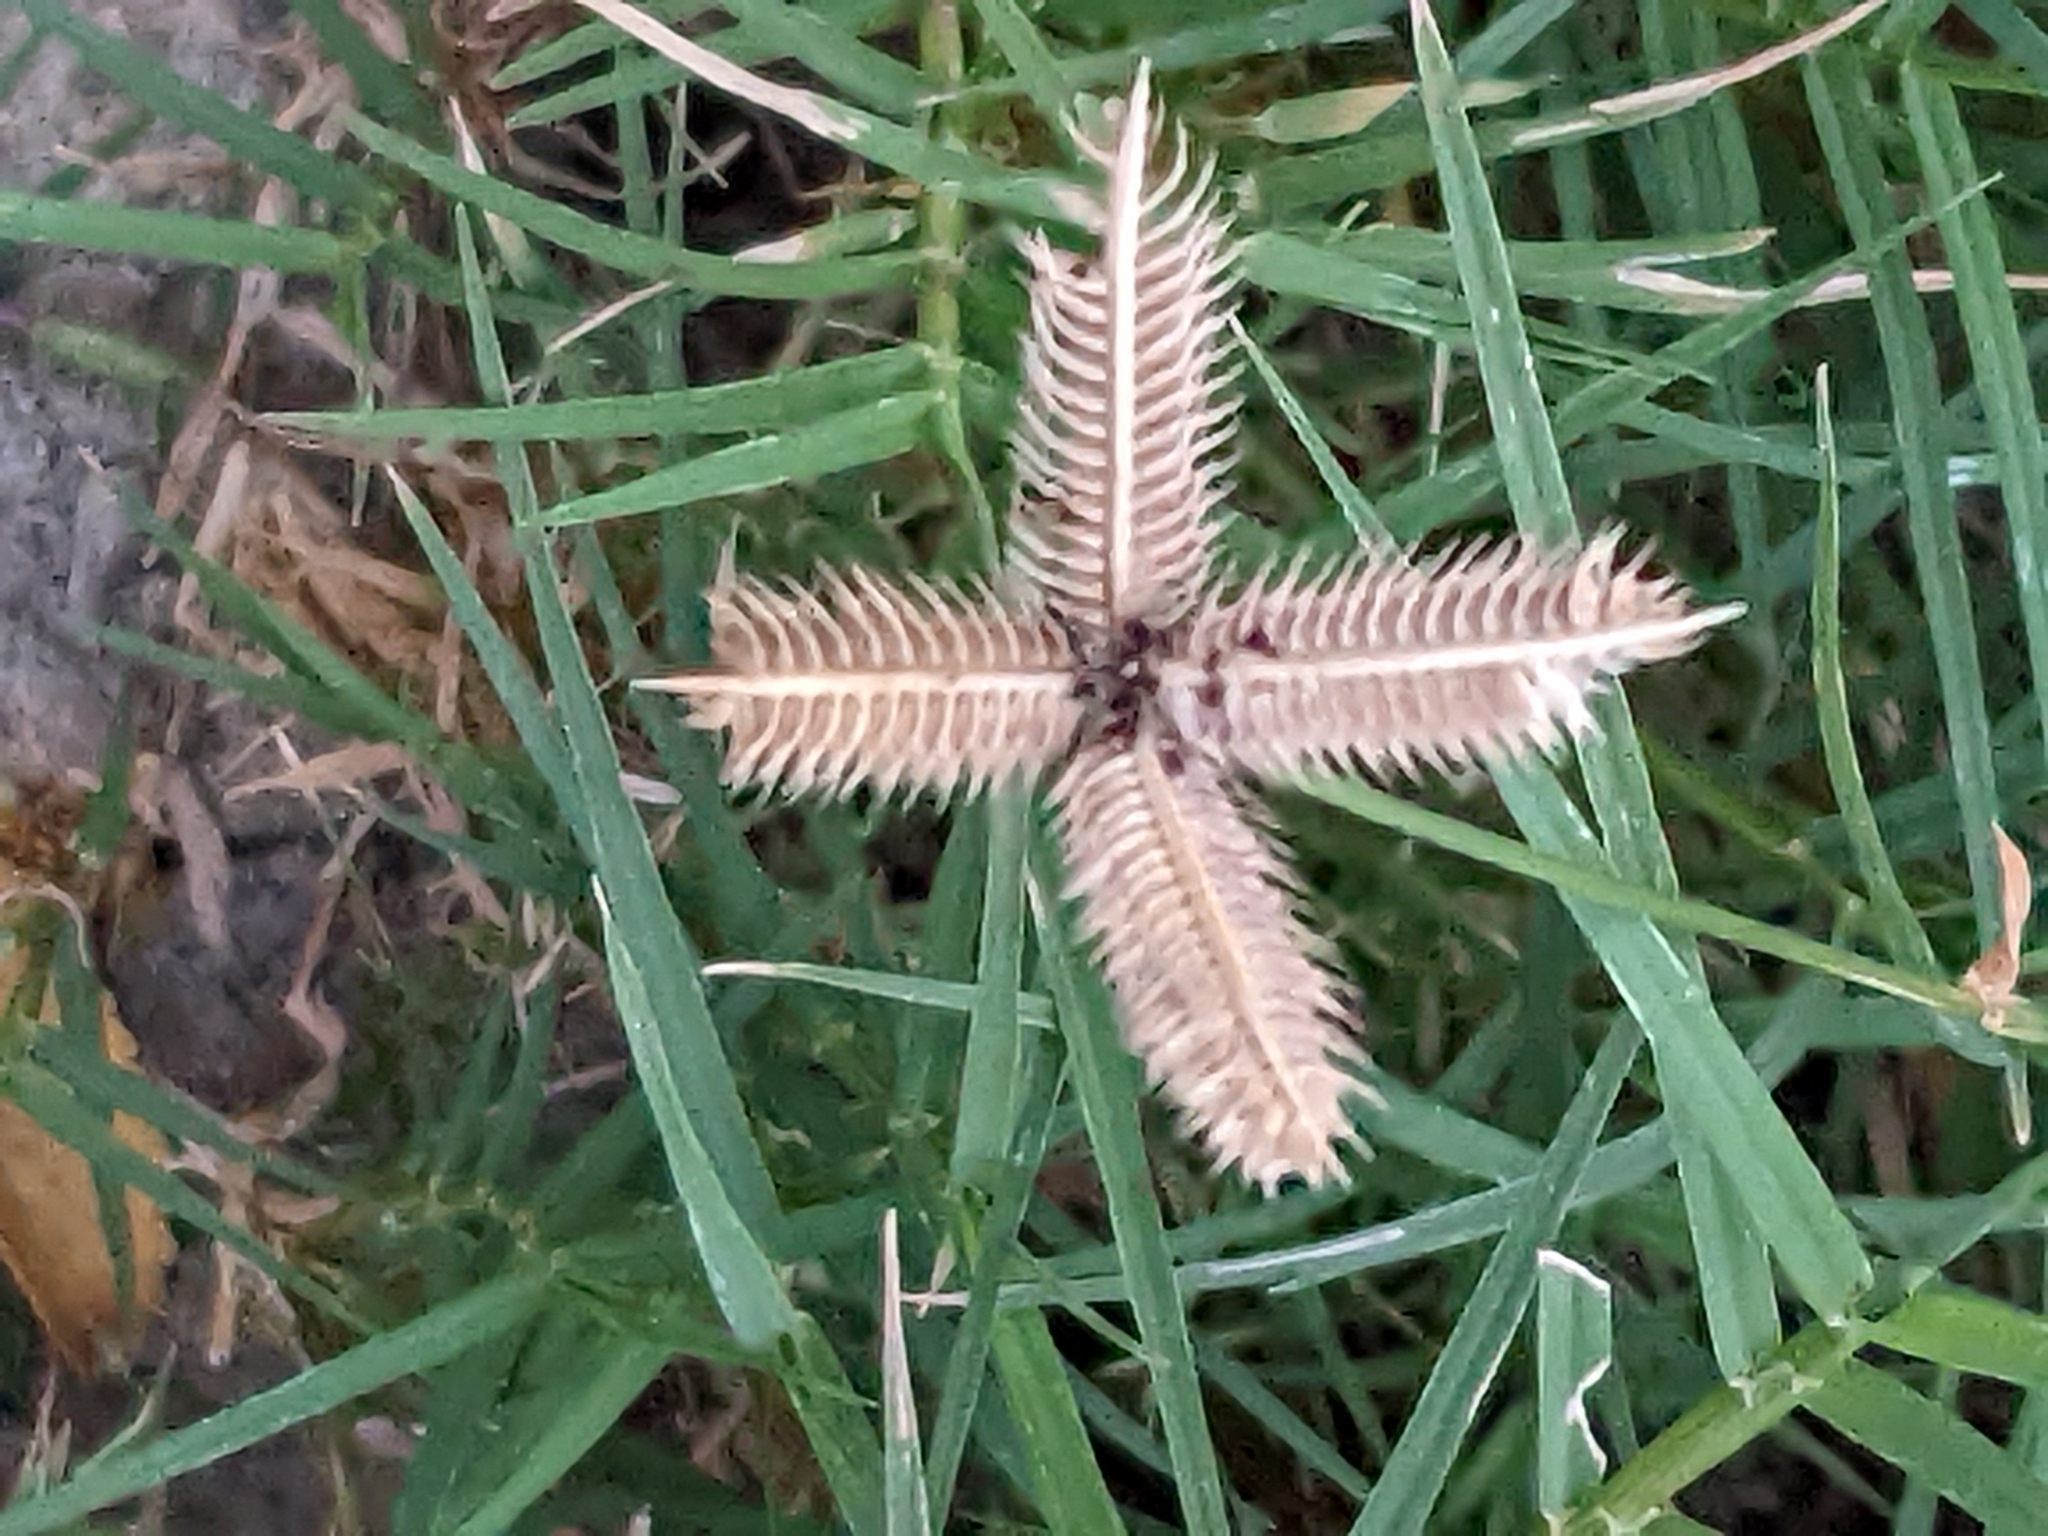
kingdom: Plantae
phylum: Tracheophyta
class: Liliopsida
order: Poales
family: Poaceae
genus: Dactyloctenium
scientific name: Dactyloctenium aegyptium
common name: Egyptian grass
